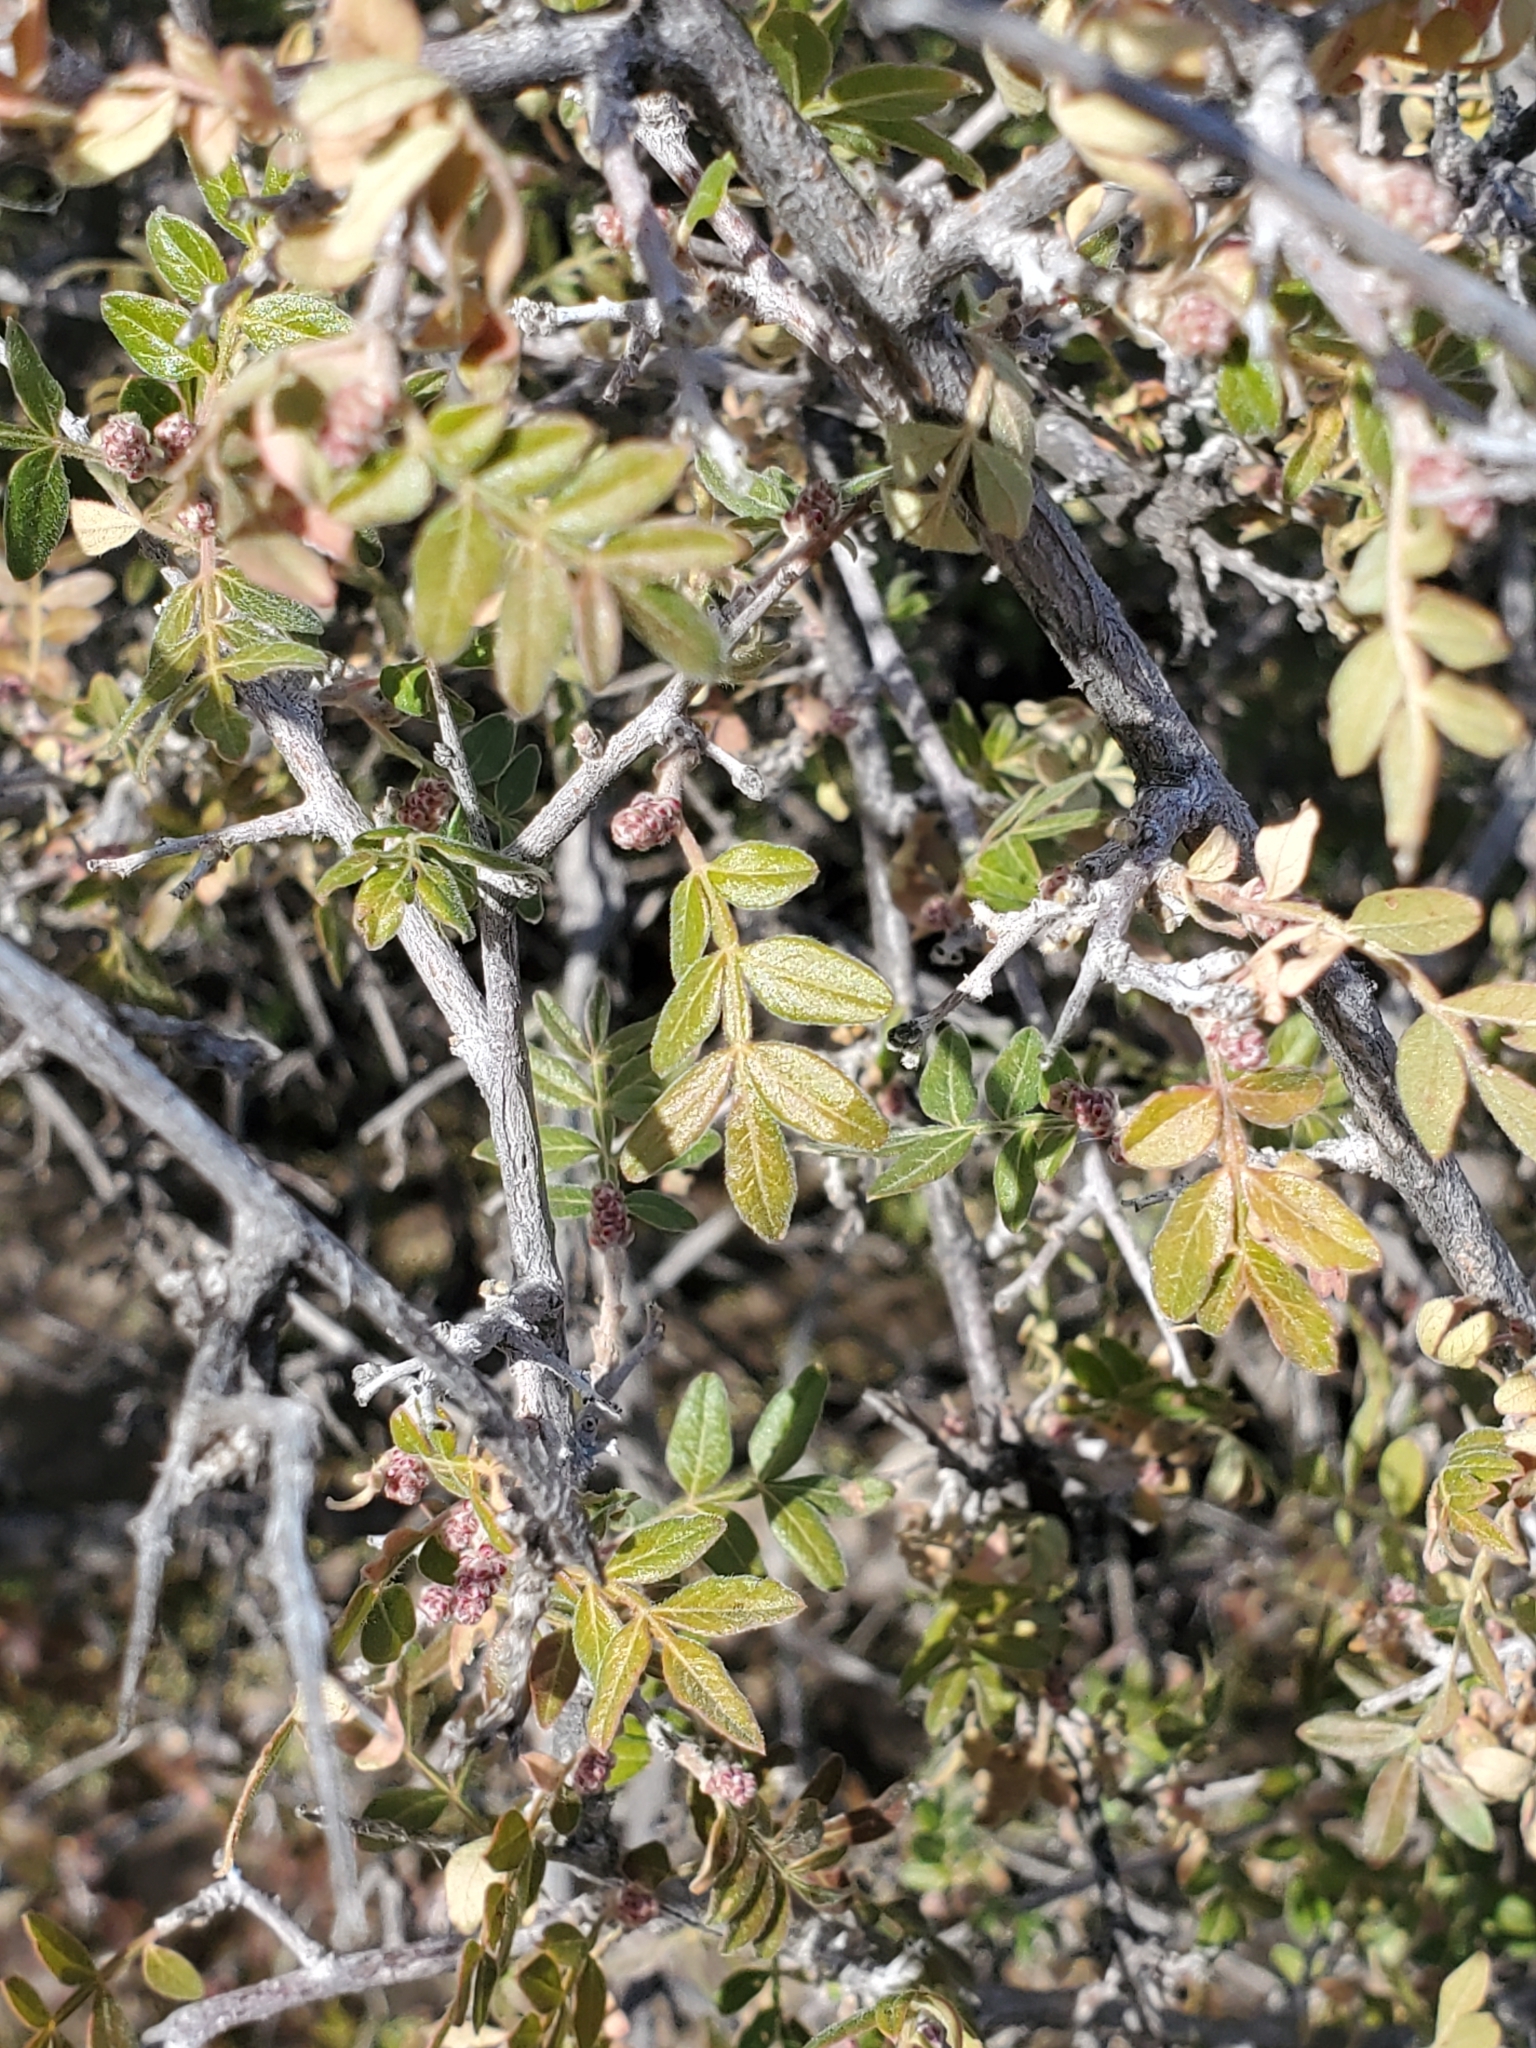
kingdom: Plantae
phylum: Tracheophyta
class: Magnoliopsida
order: Sapindales
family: Anacardiaceae
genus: Rhus
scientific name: Rhus microphylla
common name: Desert sumac
